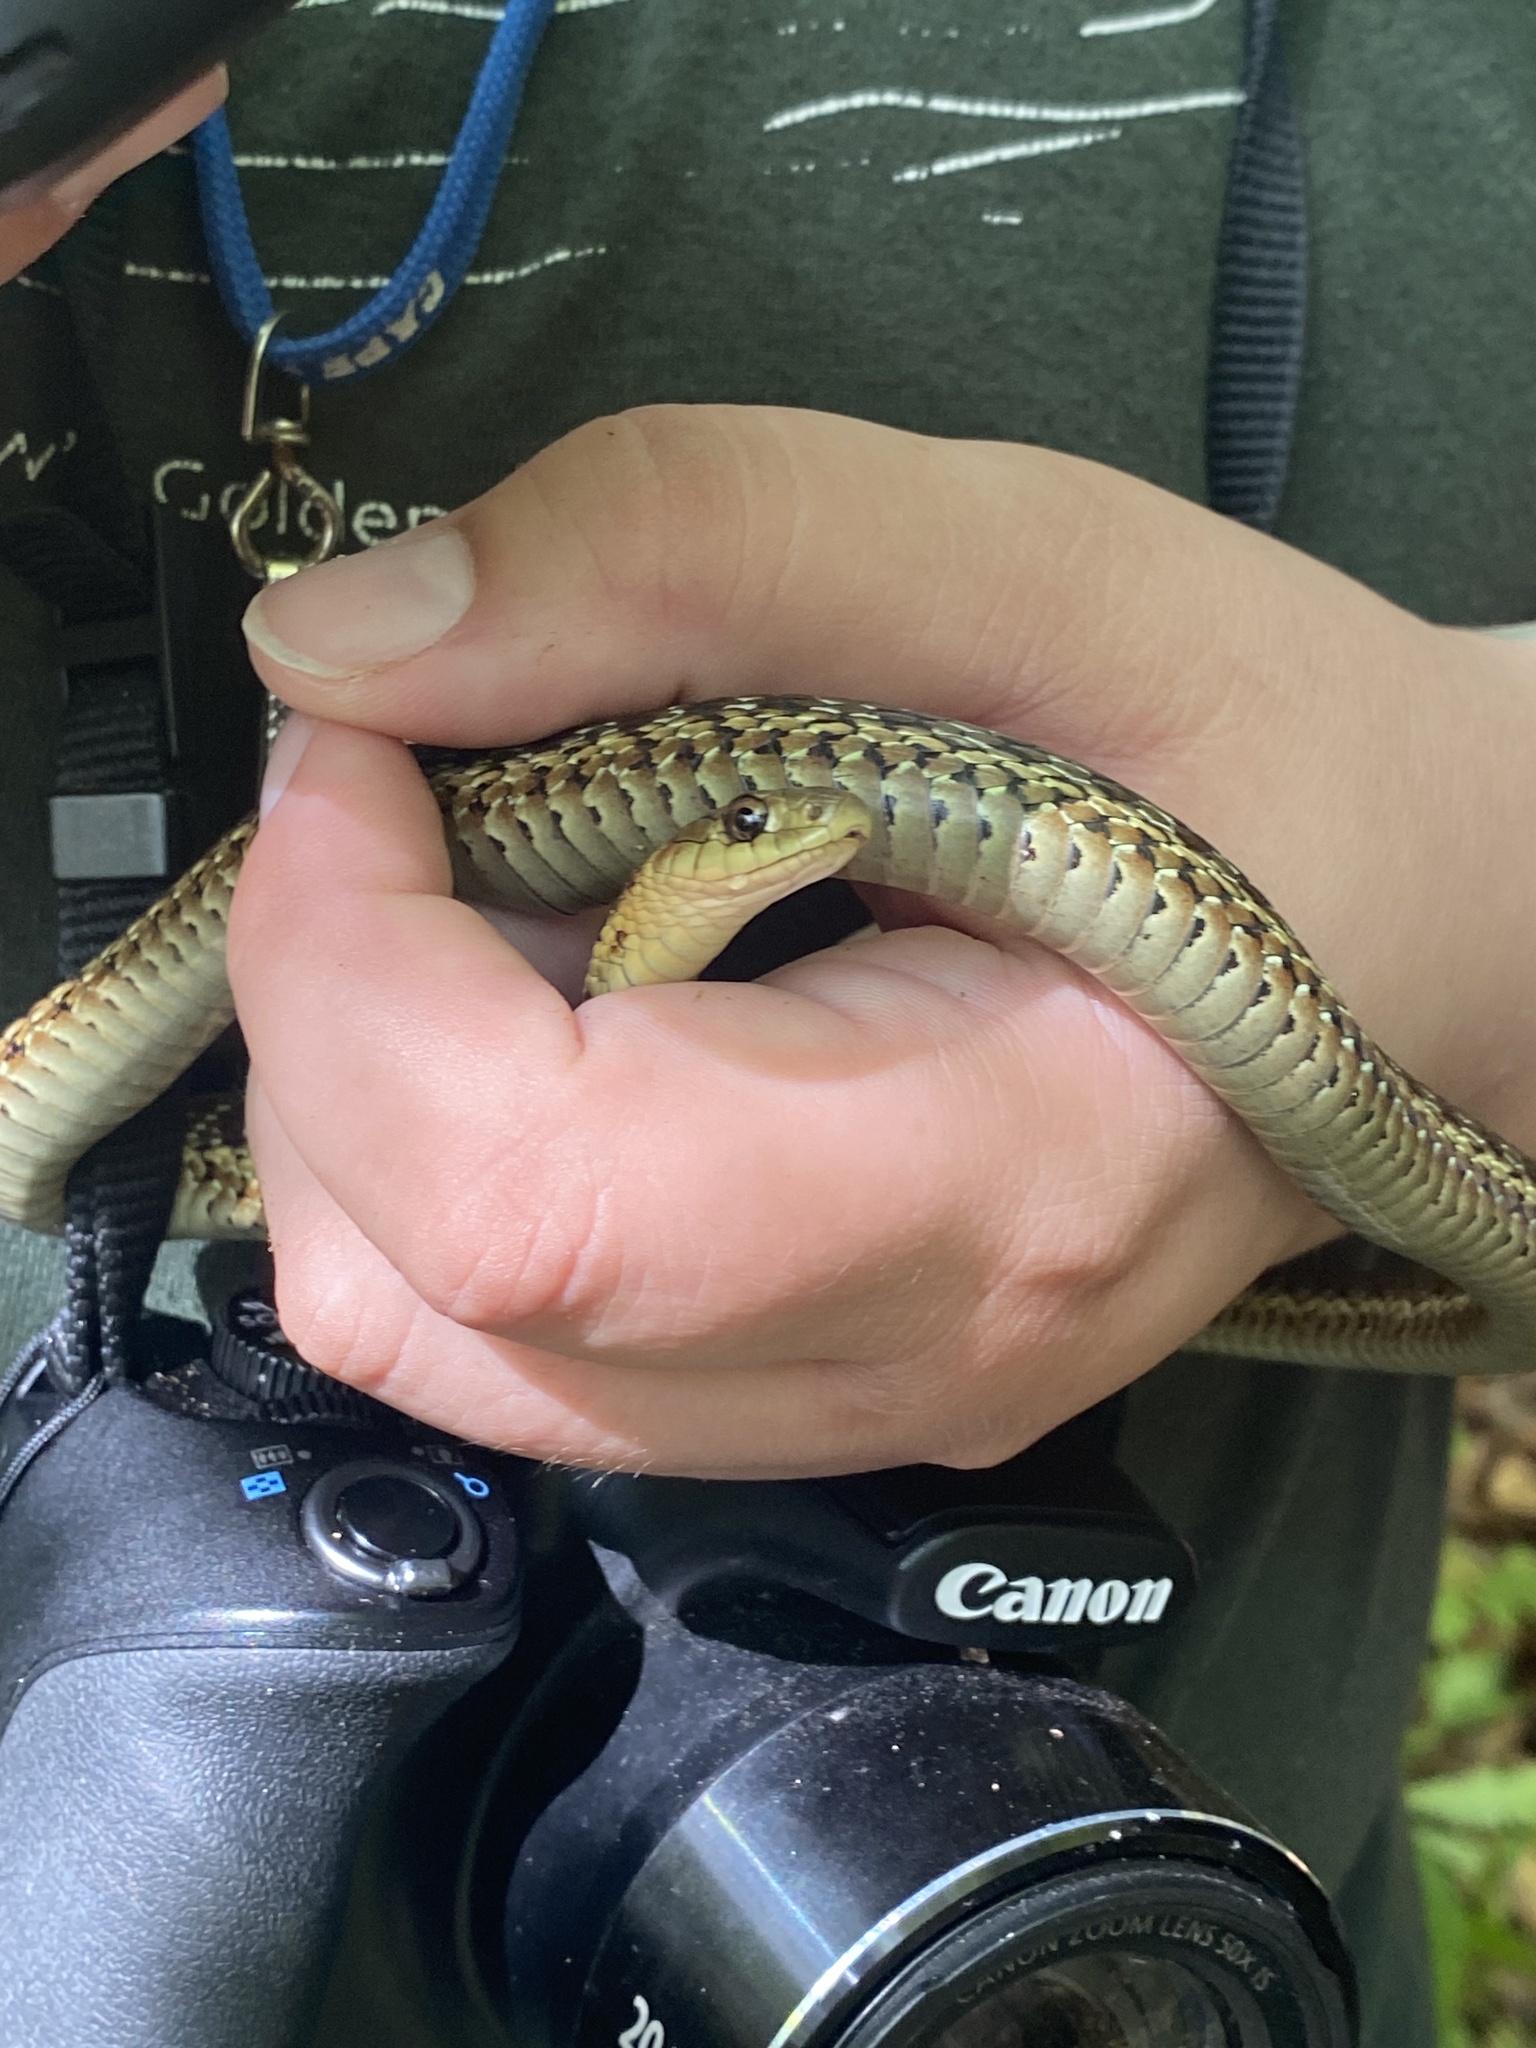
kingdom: Animalia
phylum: Chordata
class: Squamata
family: Colubridae
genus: Thamnophis
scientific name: Thamnophis sirtalis
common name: Common garter snake
